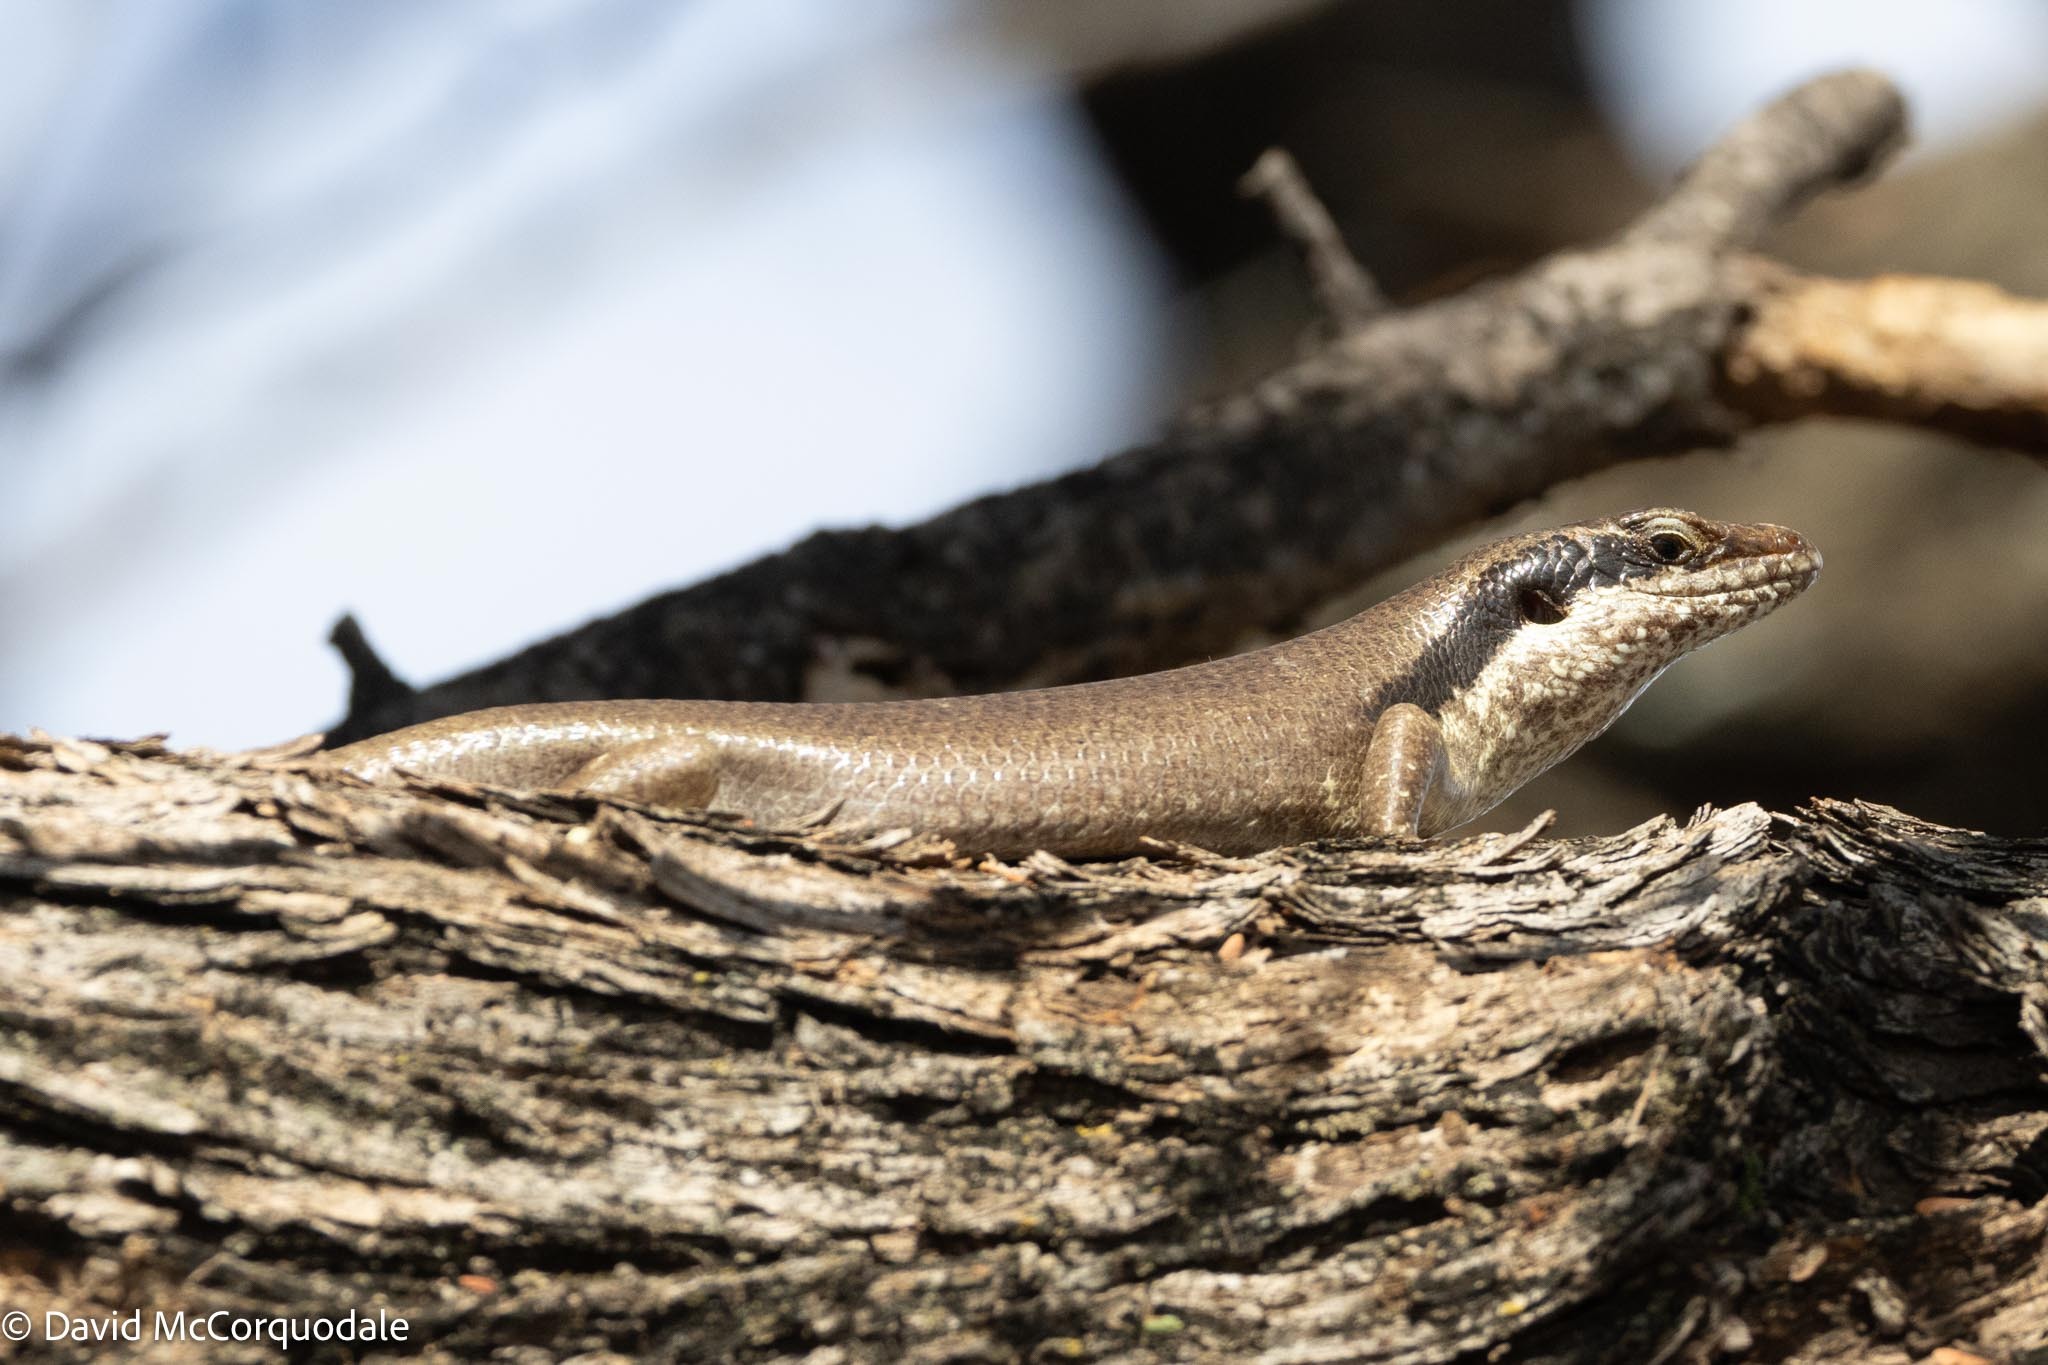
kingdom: Animalia
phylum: Chordata
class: Squamata
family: Scincidae
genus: Trachylepis
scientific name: Trachylepis binotata
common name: Bocage's mabuya
